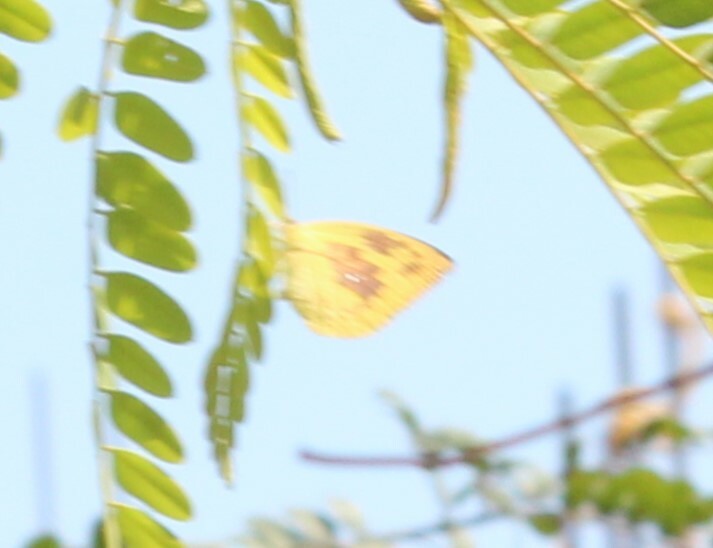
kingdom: Animalia
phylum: Arthropoda
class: Insecta
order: Lepidoptera
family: Pieridae
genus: Catopsilia
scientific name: Catopsilia pomona
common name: Common emigrant
